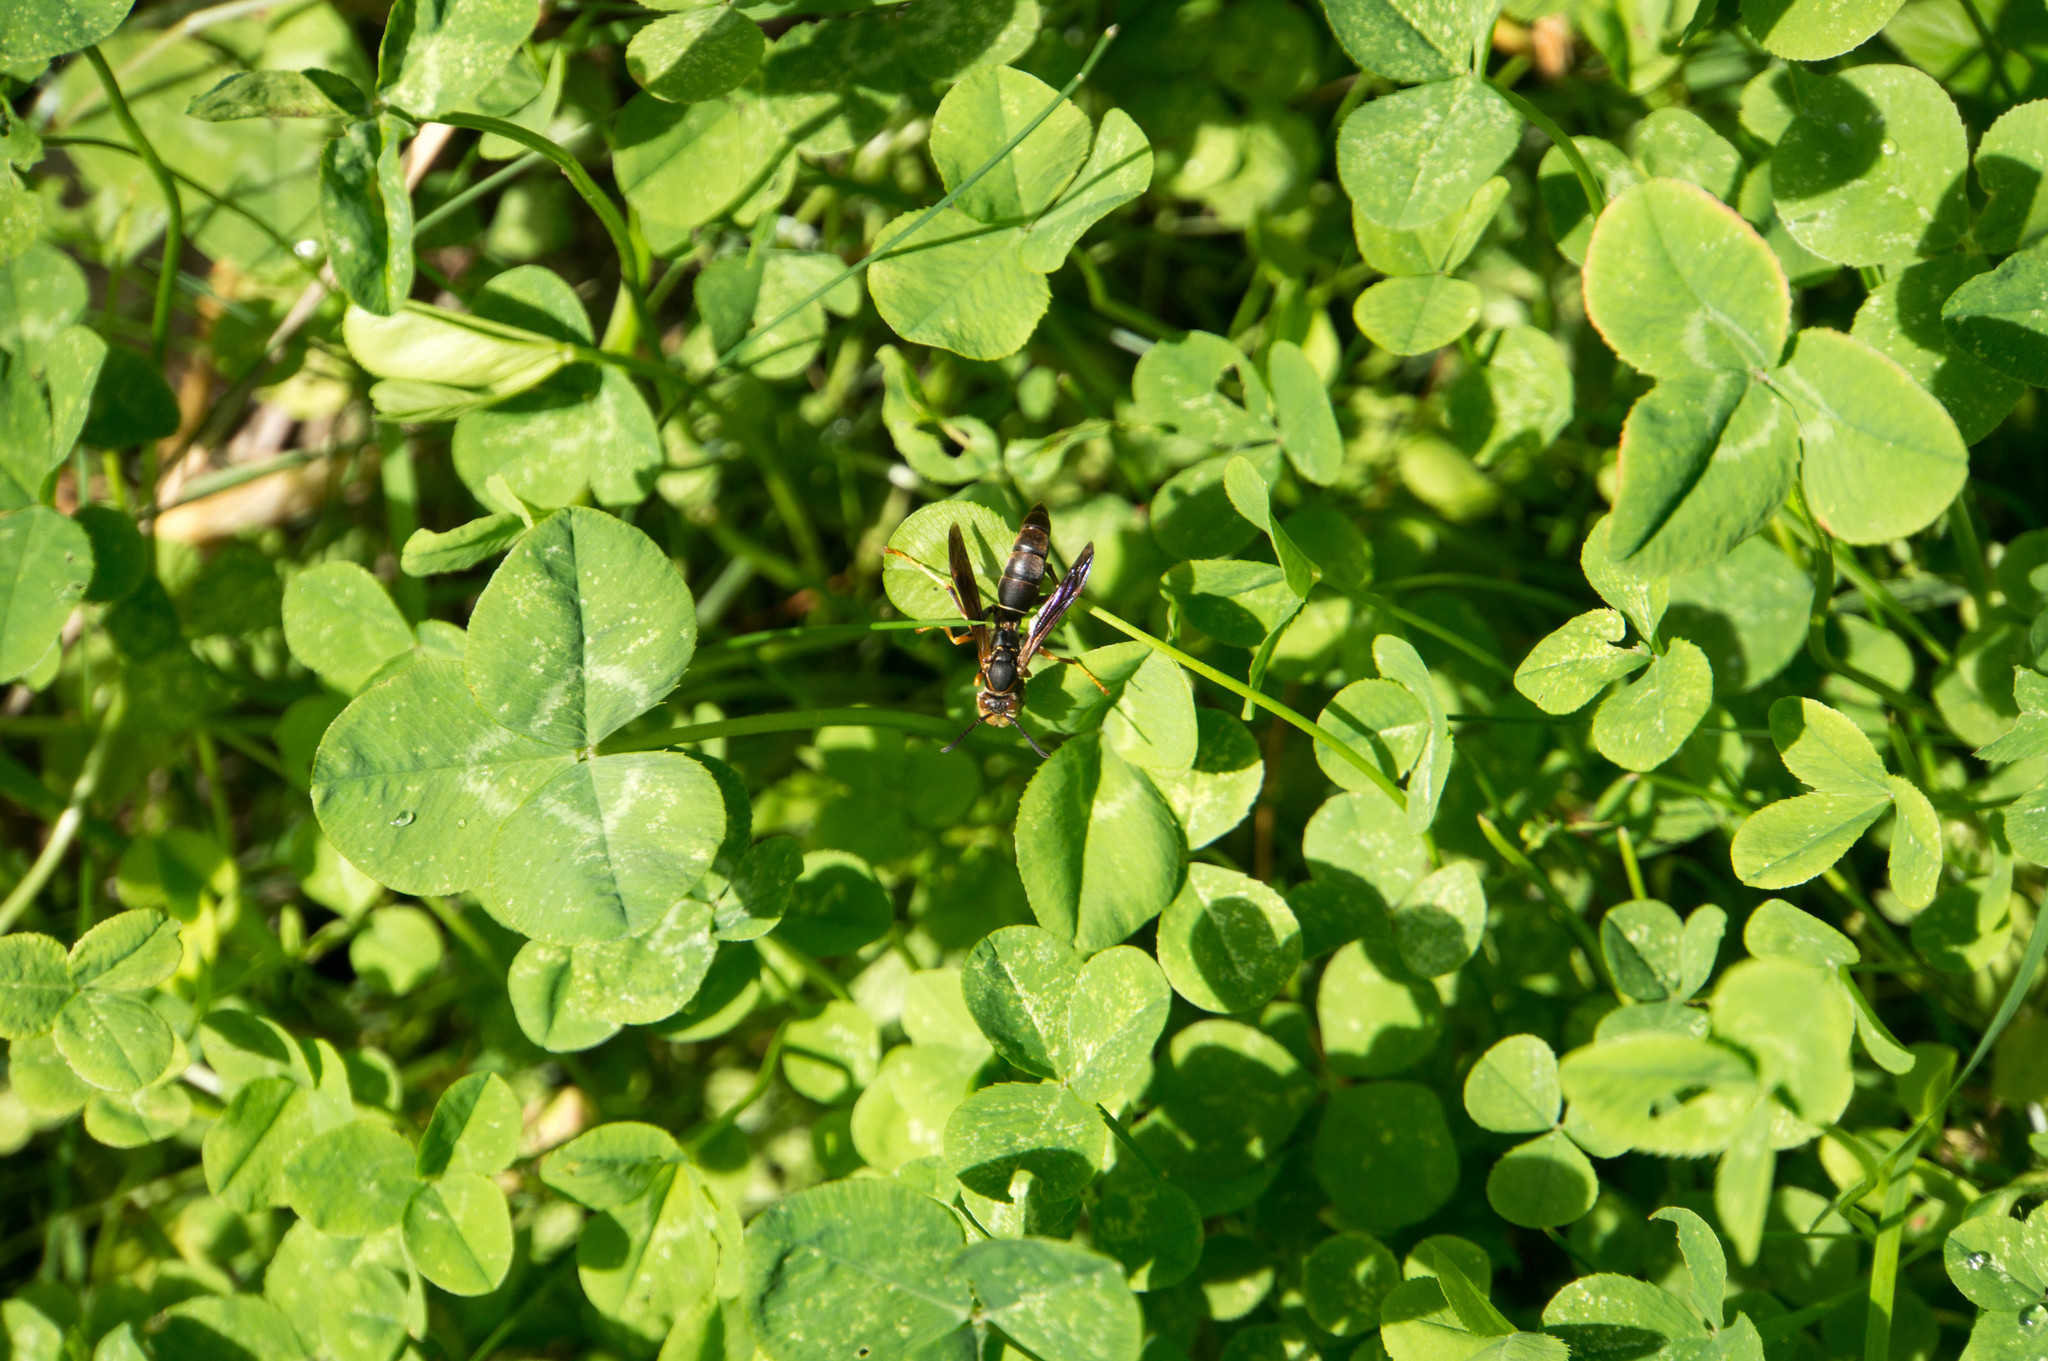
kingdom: Animalia
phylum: Arthropoda
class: Insecta
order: Hymenoptera
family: Eumenidae
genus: Polistes
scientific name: Polistes fuscatus
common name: Dark paper wasp
